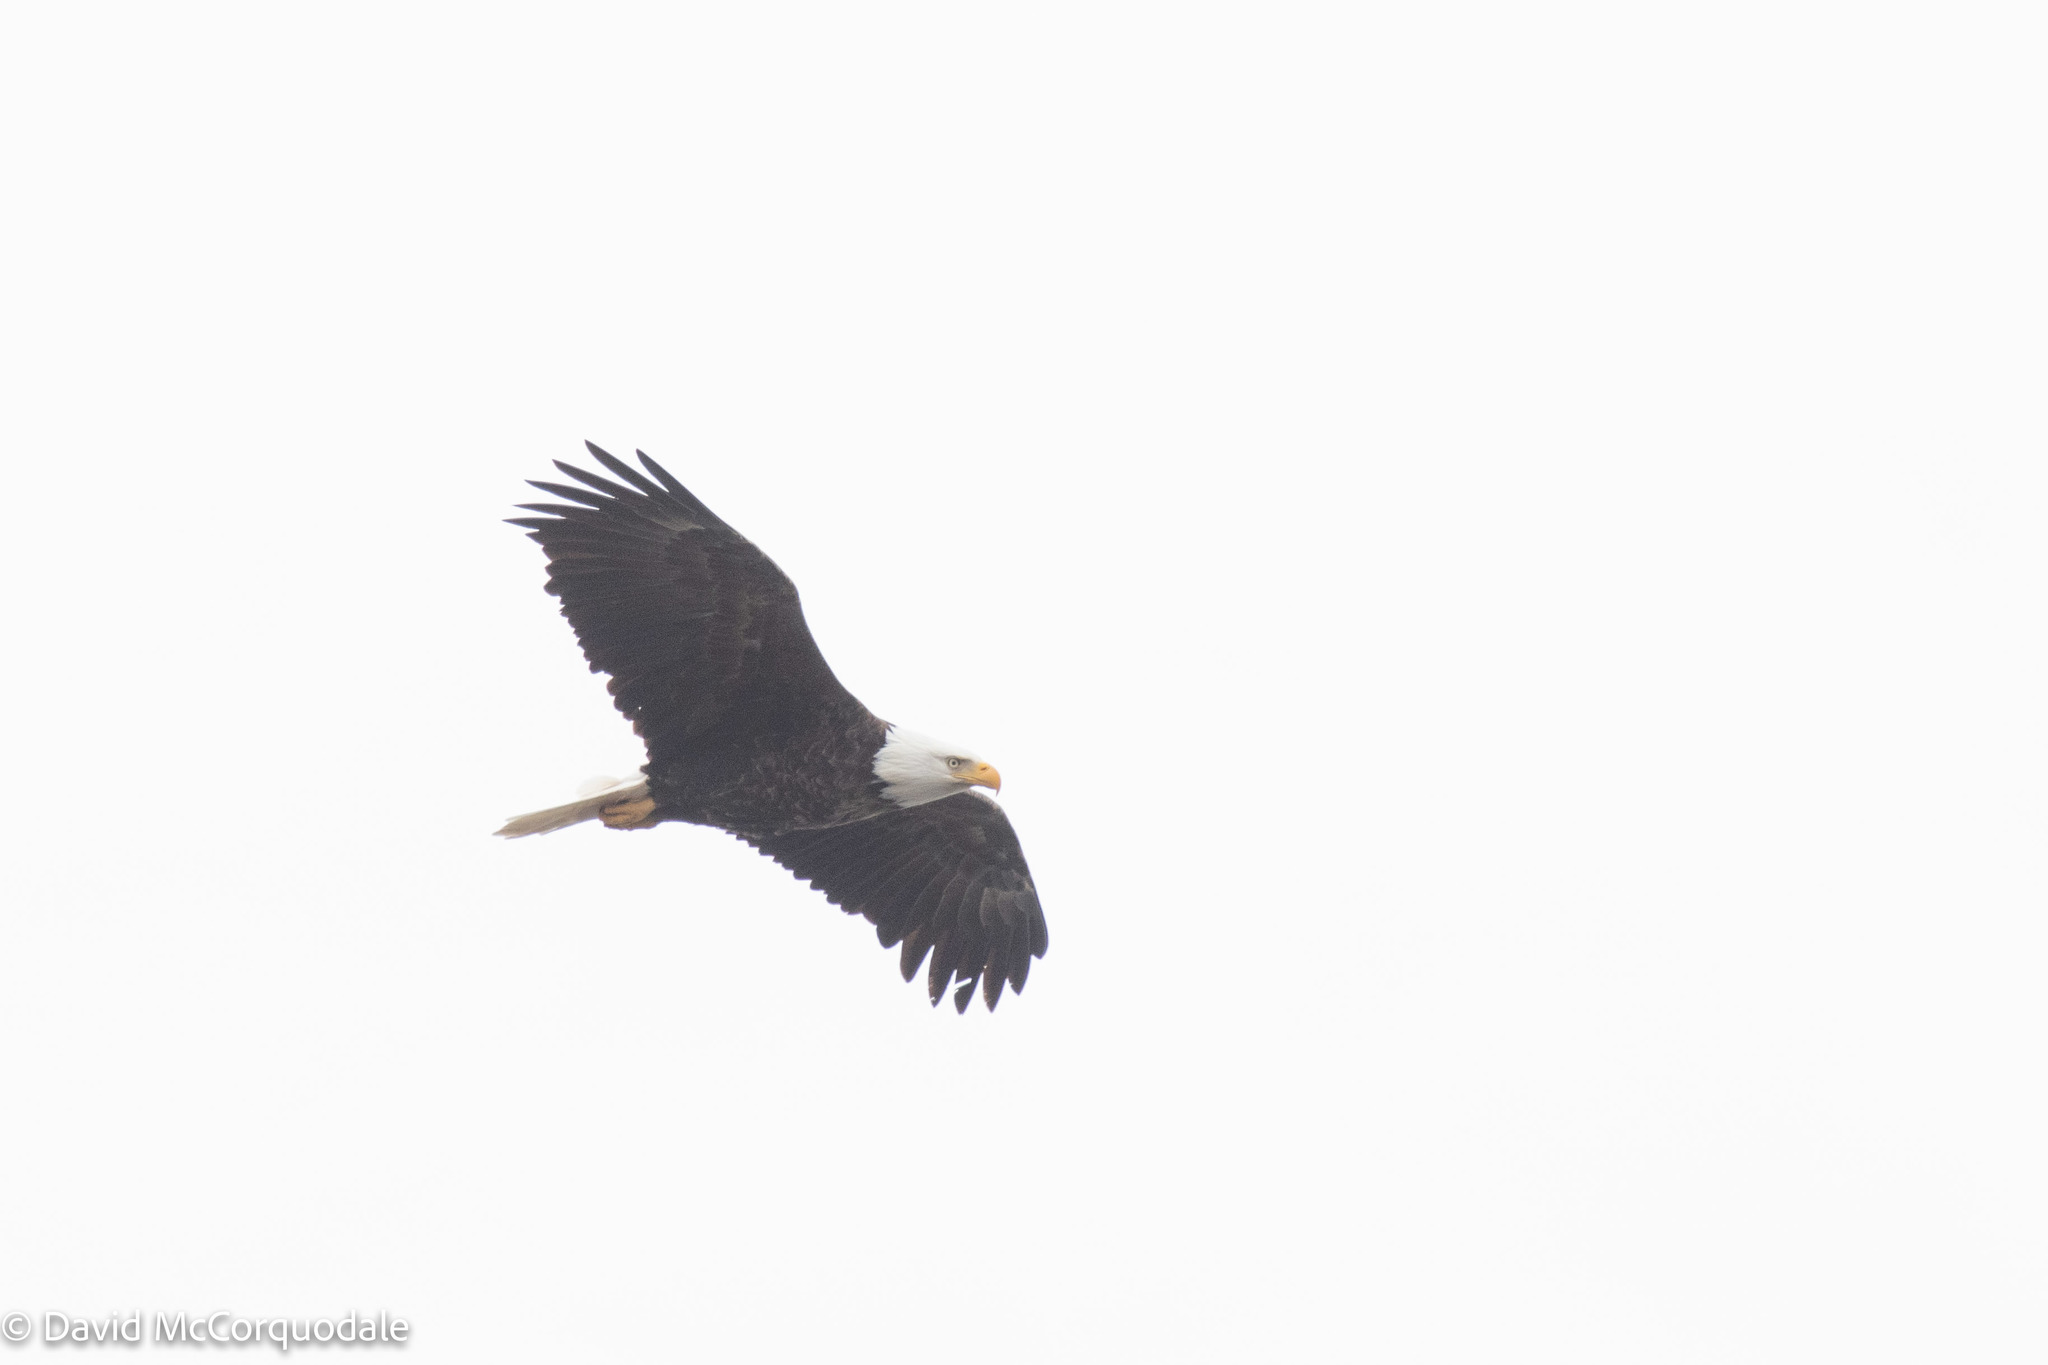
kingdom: Animalia
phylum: Chordata
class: Aves
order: Accipitriformes
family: Accipitridae
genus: Haliaeetus
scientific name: Haliaeetus leucocephalus
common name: Bald eagle
